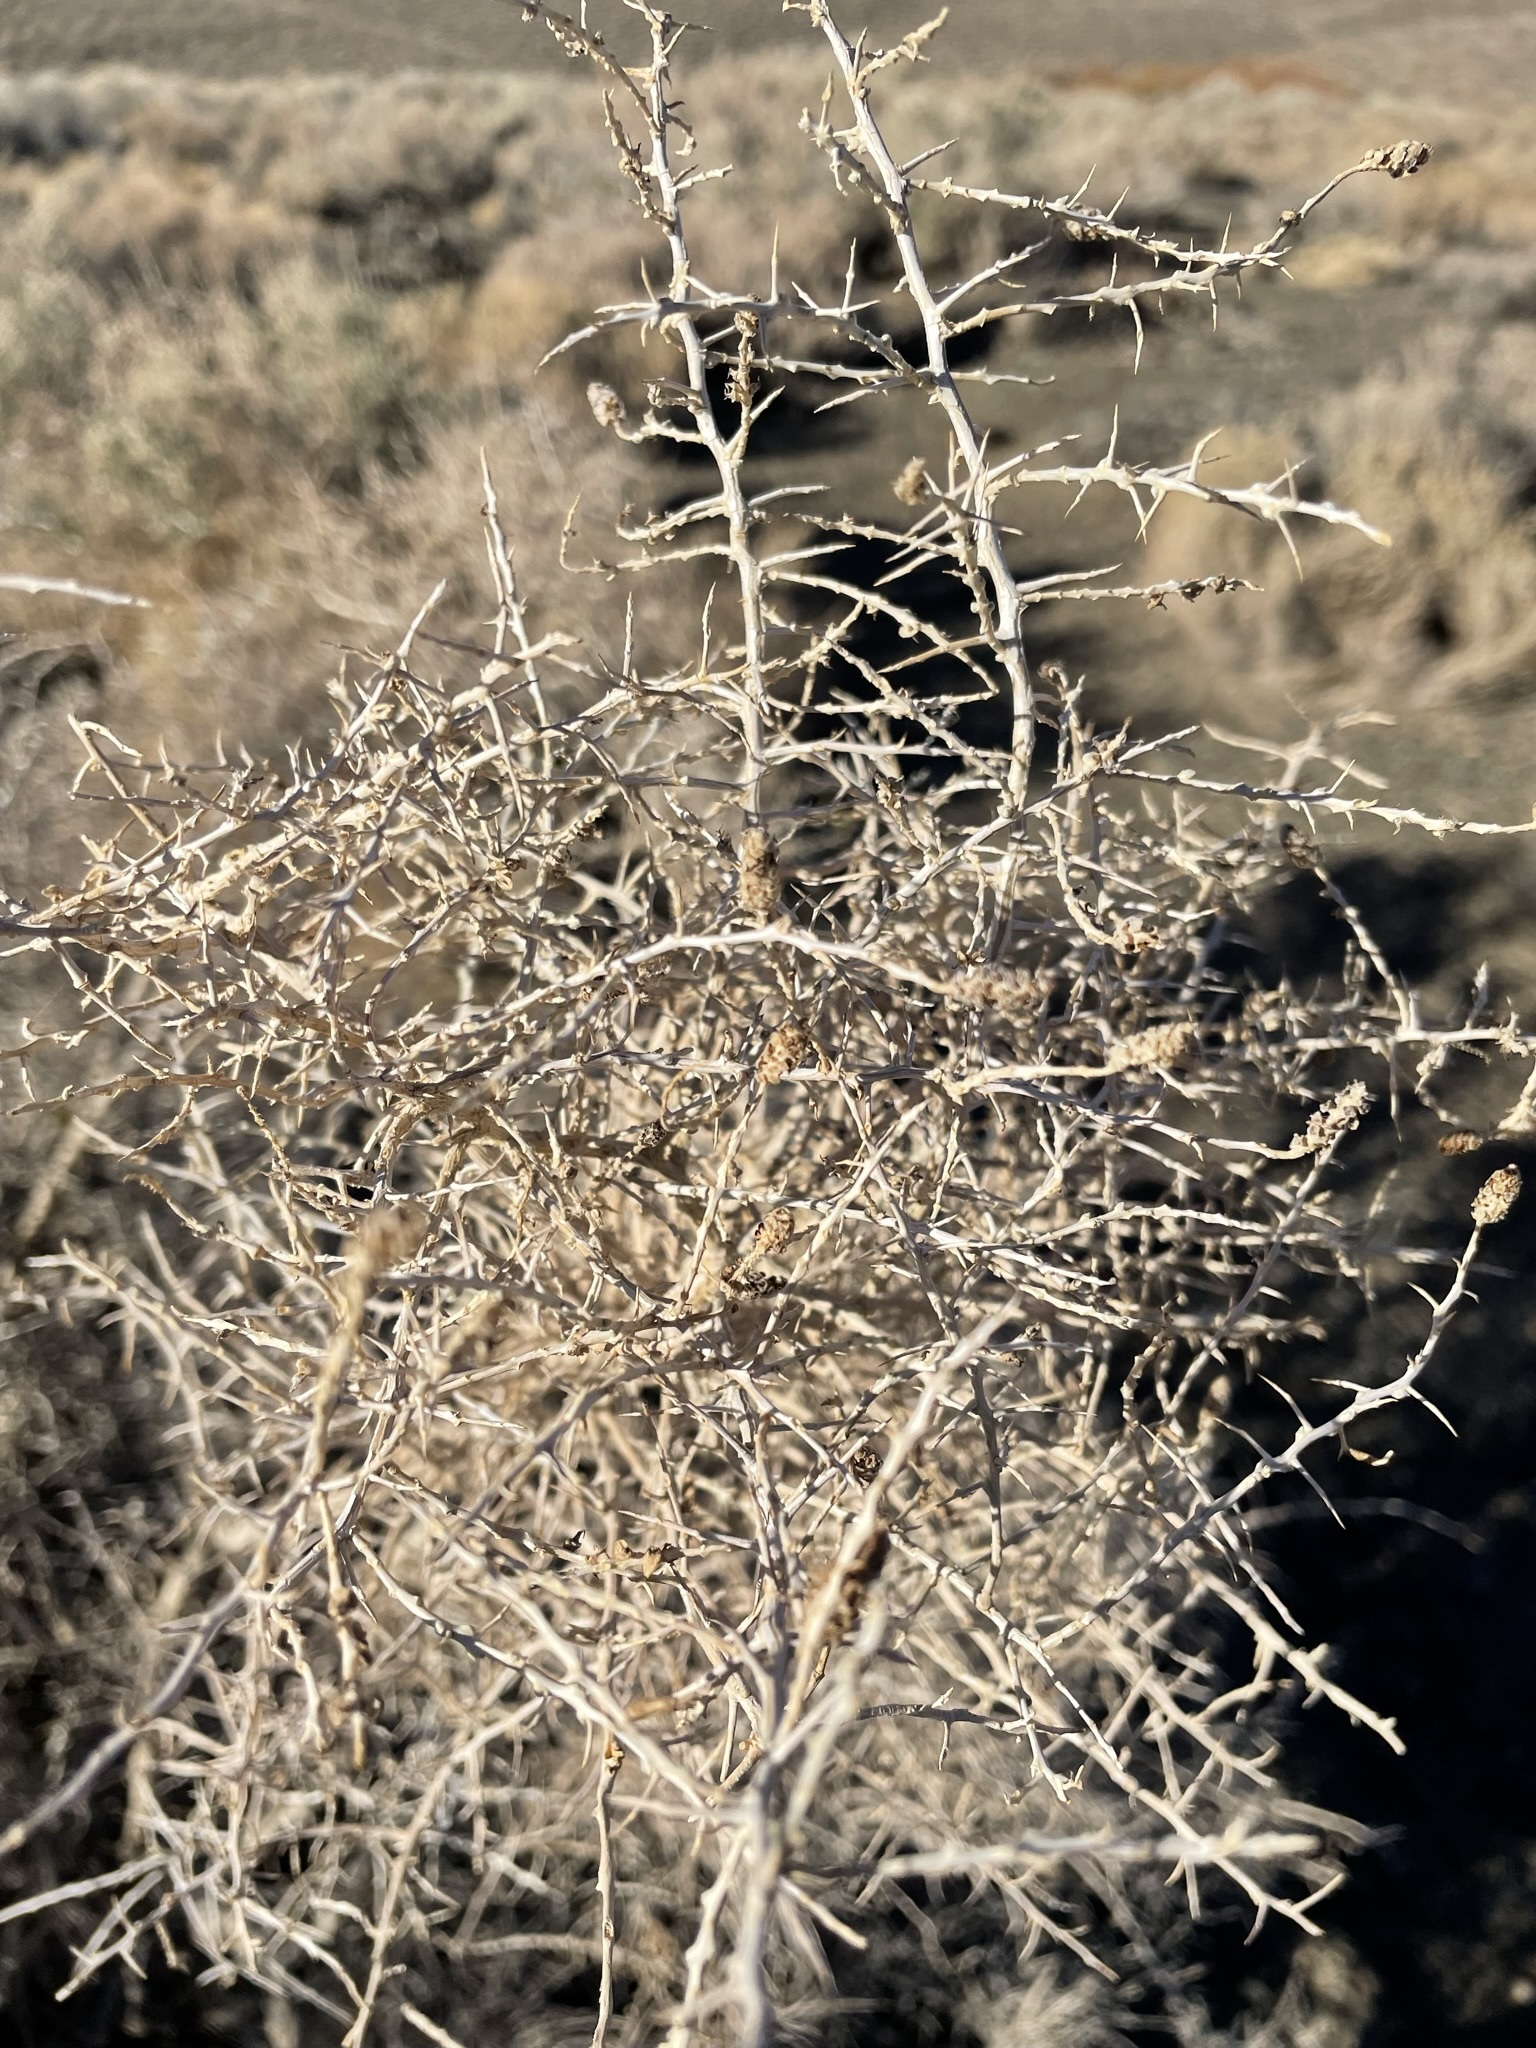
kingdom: Plantae
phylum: Tracheophyta
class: Magnoliopsida
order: Caryophyllales
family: Sarcobataceae
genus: Sarcobatus
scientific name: Sarcobatus vermiculatus
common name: Greasewood
